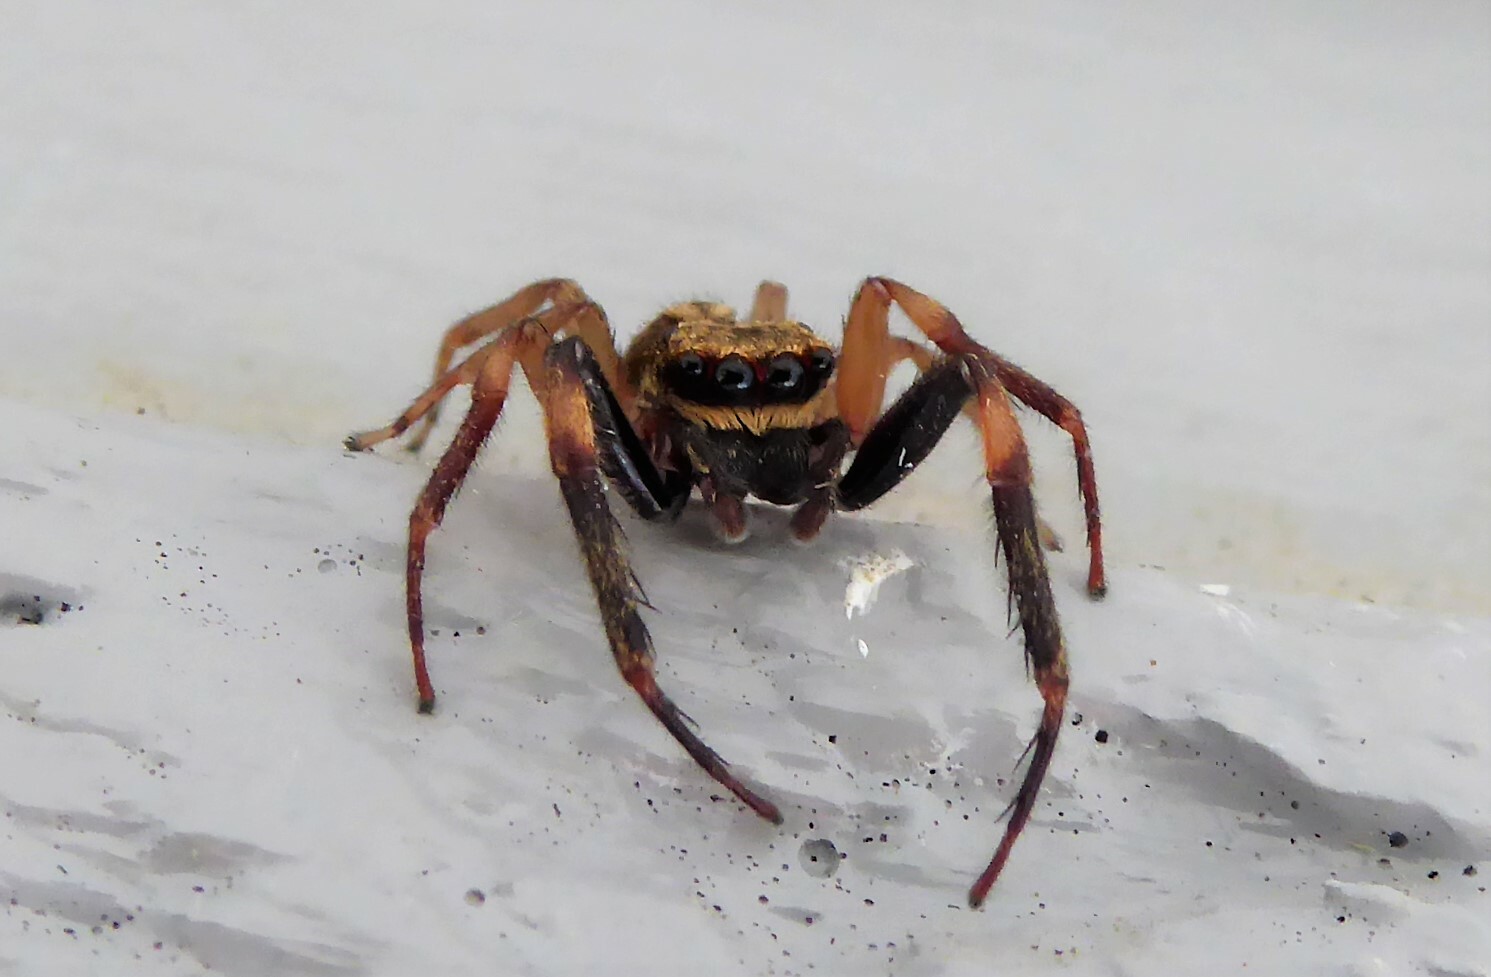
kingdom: Animalia
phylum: Arthropoda
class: Arachnida
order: Araneae
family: Salticidae
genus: Trite
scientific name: Trite auricoma
